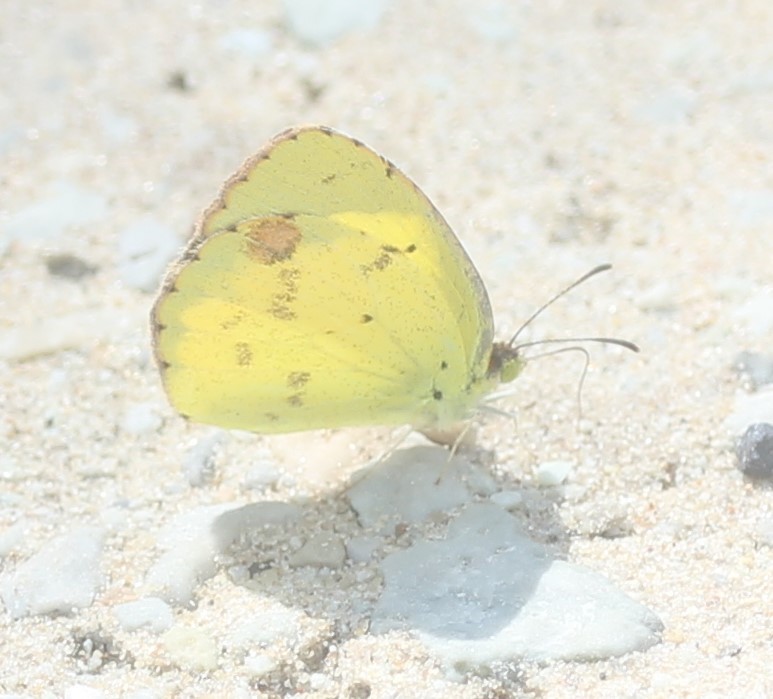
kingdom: Animalia
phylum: Arthropoda
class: Insecta
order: Lepidoptera
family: Pieridae
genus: Pyrisitia
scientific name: Pyrisitia lisa
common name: Little yellow
